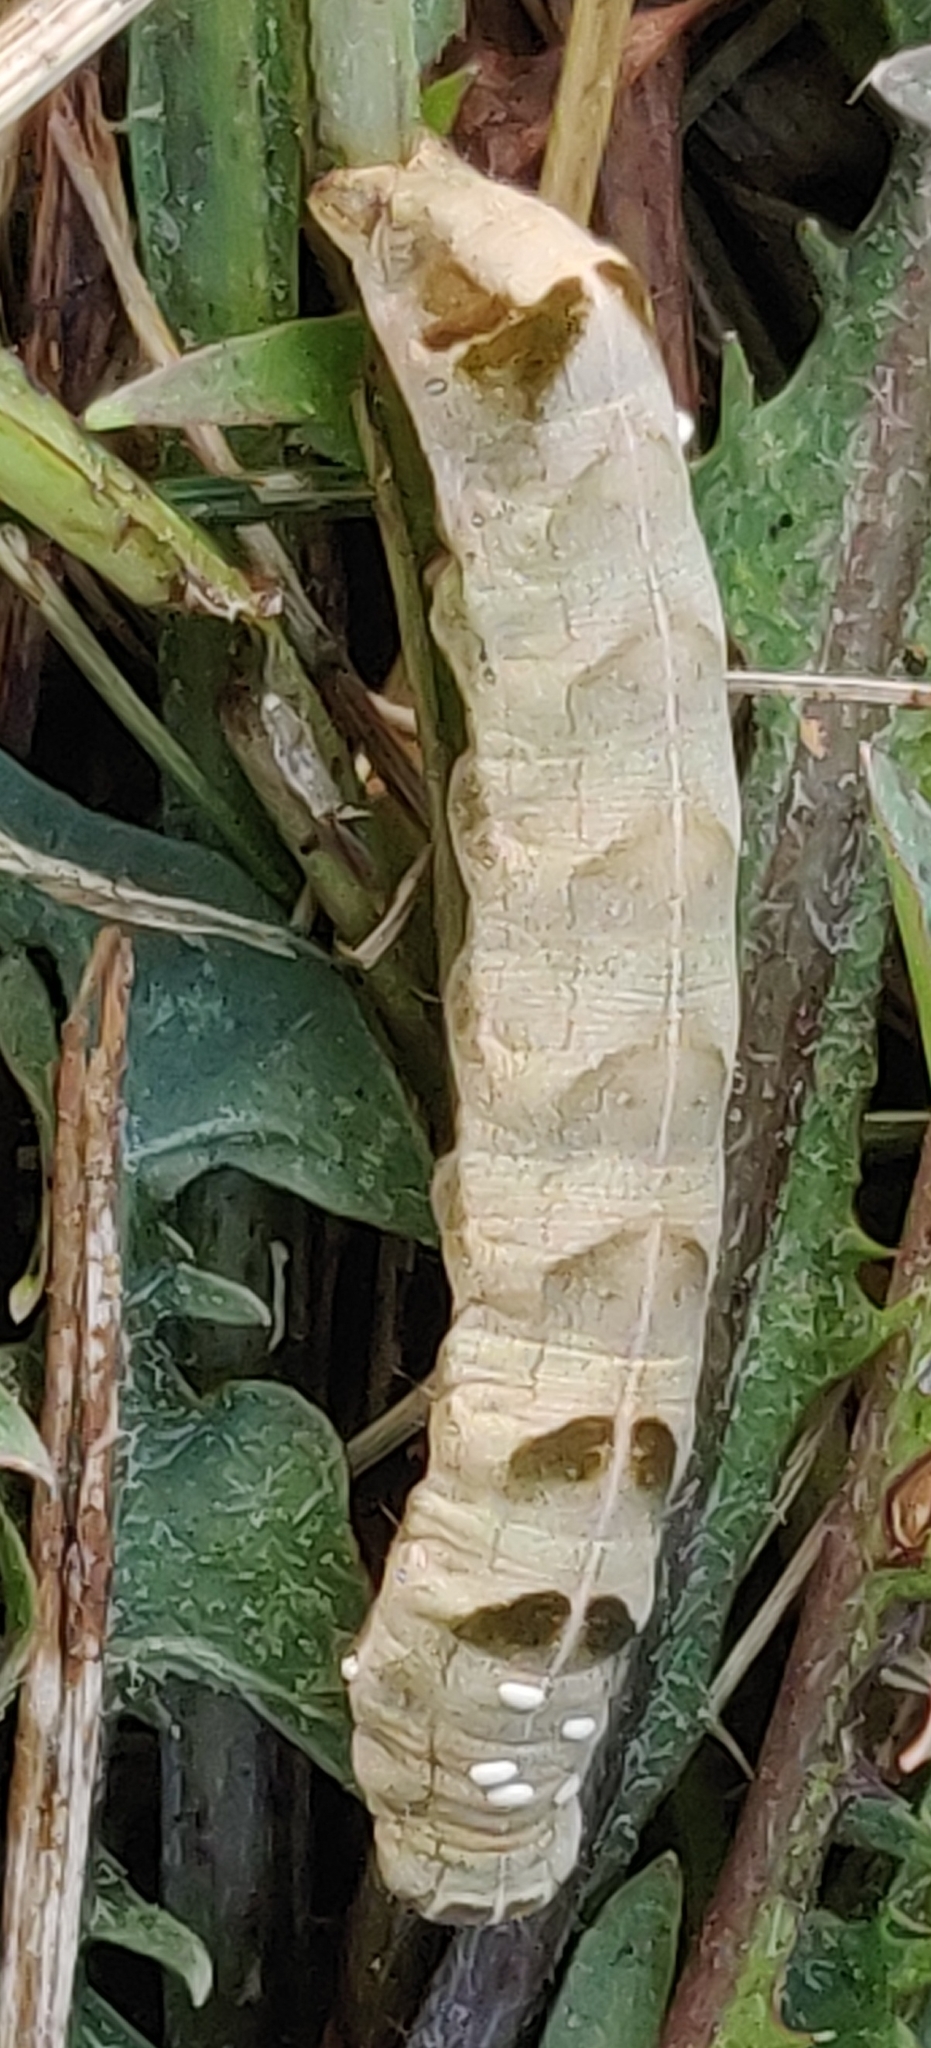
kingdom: Animalia
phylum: Arthropoda
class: Insecta
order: Lepidoptera
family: Noctuidae
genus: Melanchra
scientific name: Melanchra adjuncta
